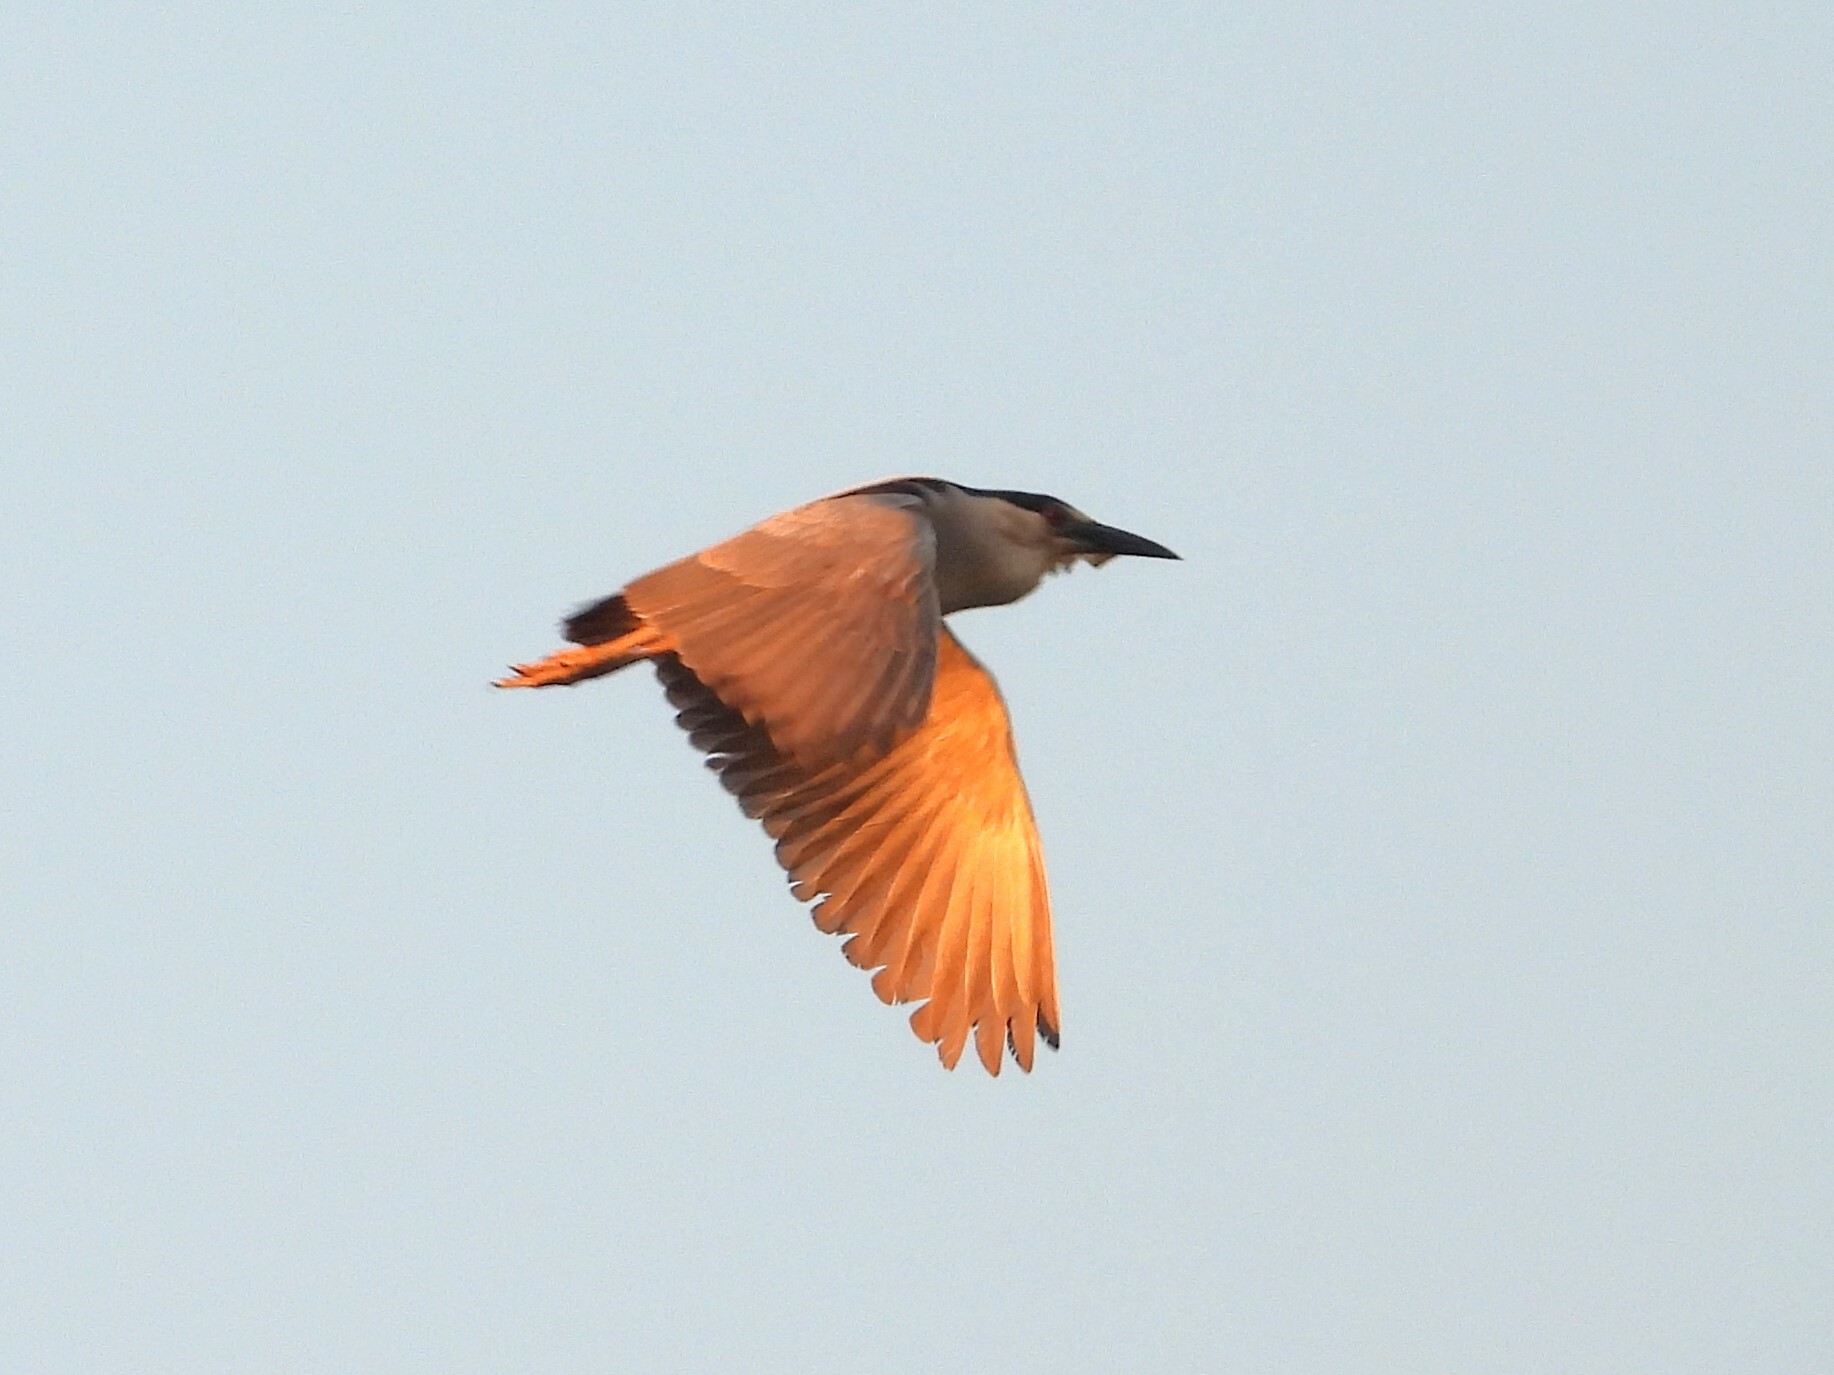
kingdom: Animalia
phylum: Chordata
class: Aves
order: Pelecaniformes
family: Ardeidae
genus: Nycticorax
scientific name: Nycticorax nycticorax
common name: Black-crowned night heron
